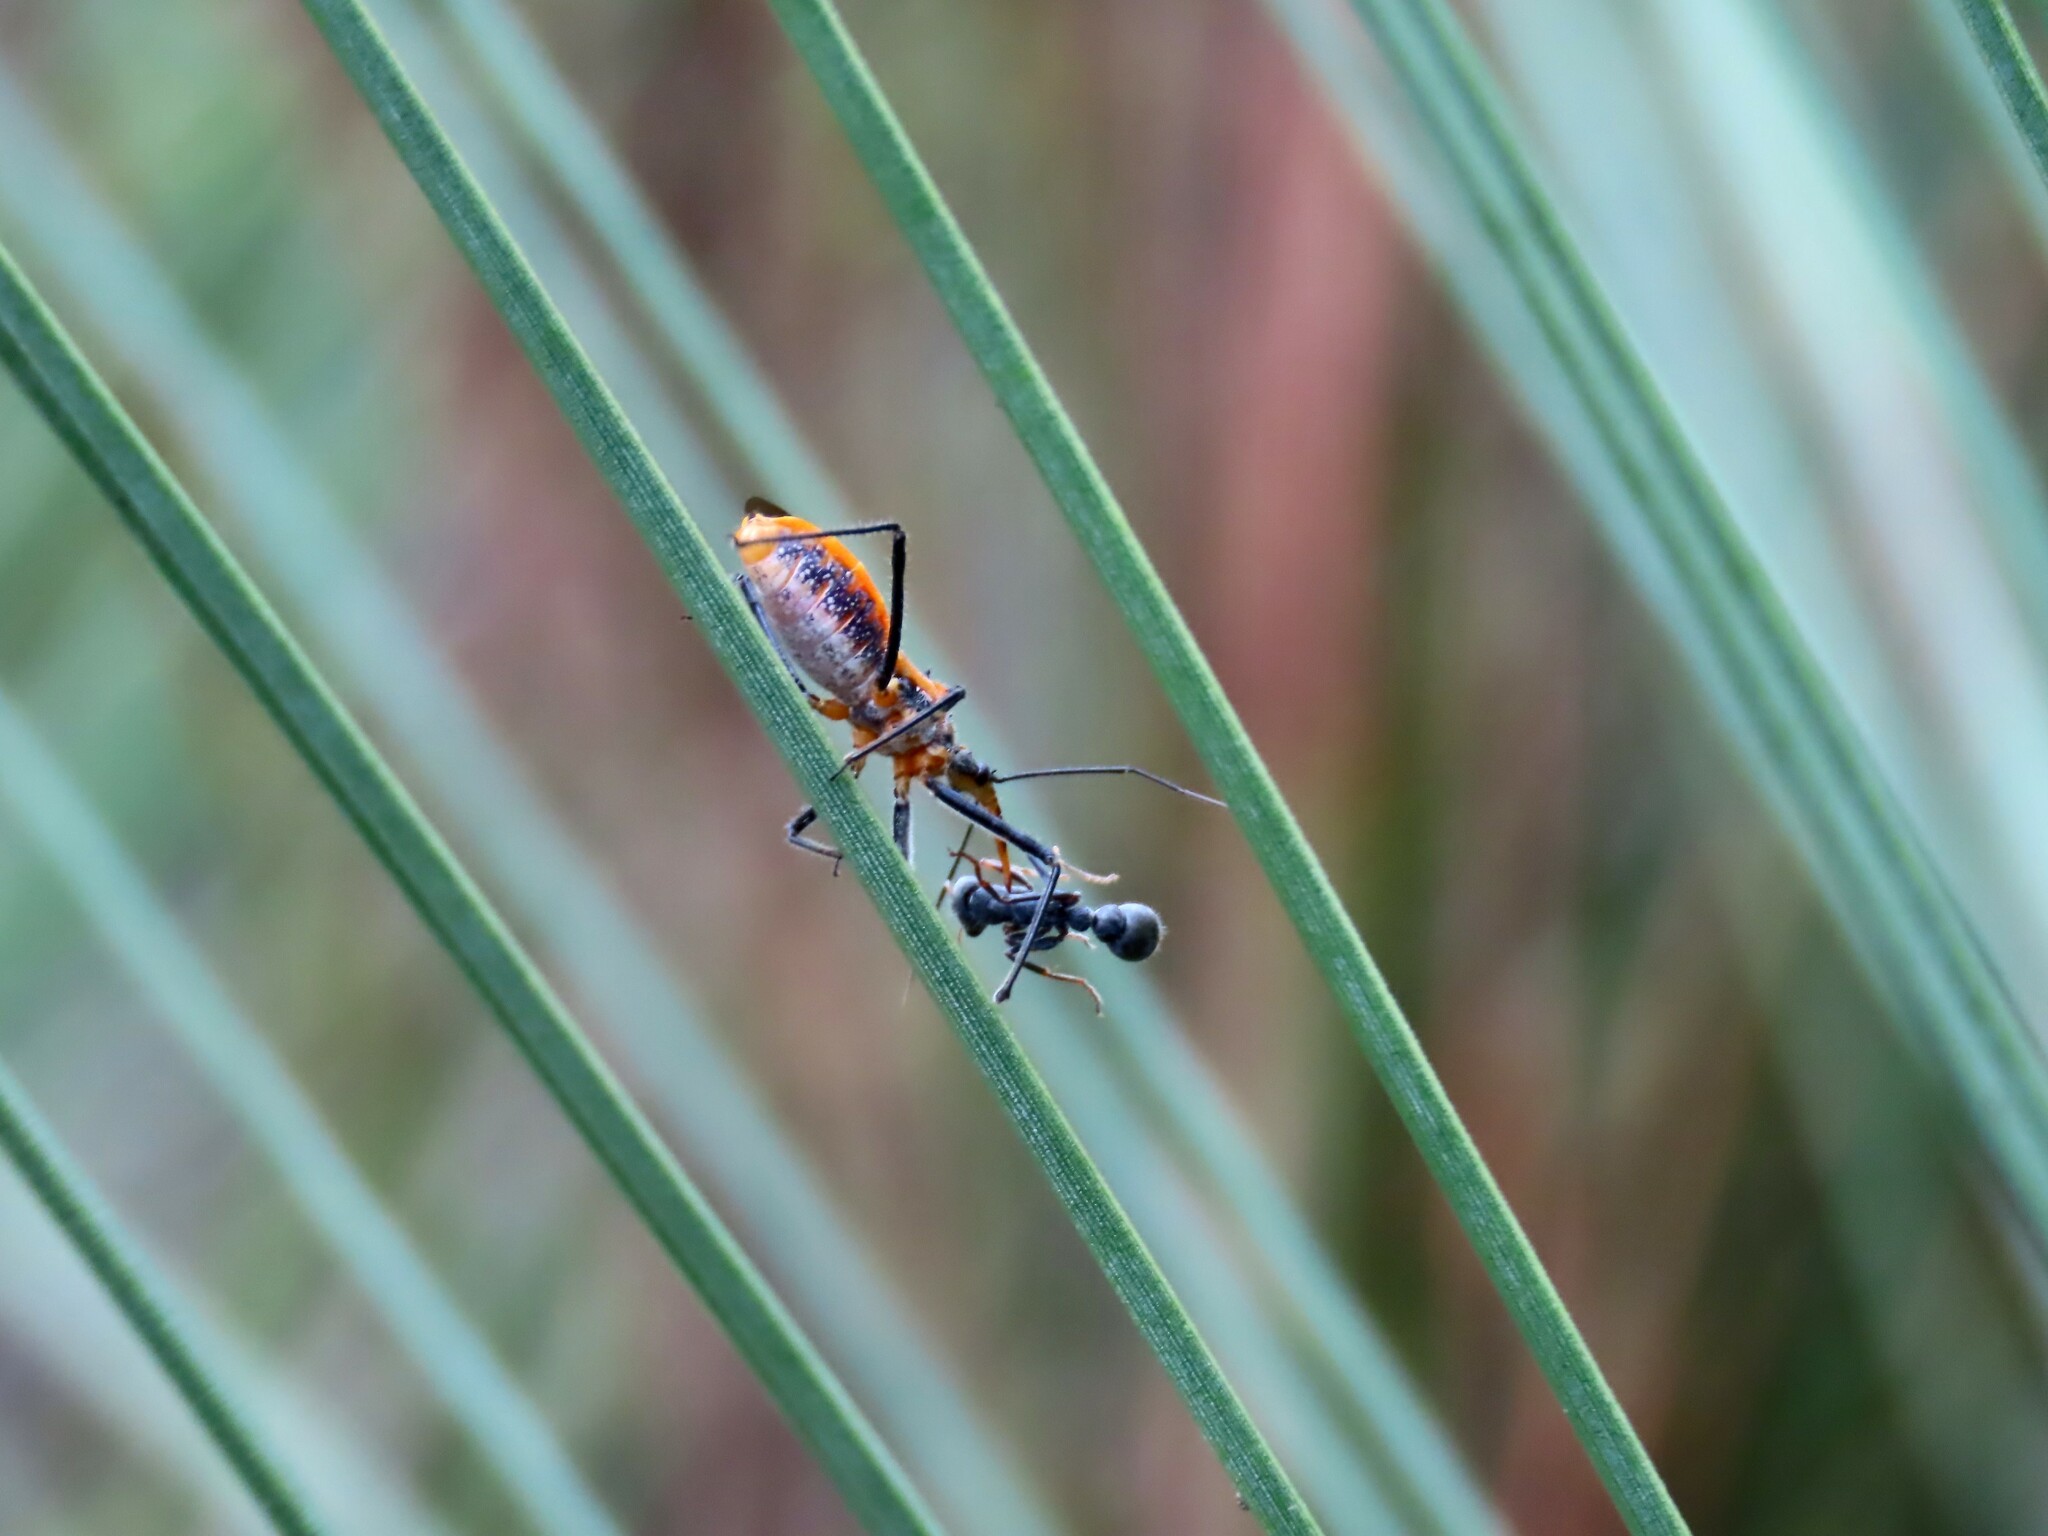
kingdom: Animalia
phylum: Arthropoda
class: Insecta
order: Hemiptera
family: Reduviidae
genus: Gminatus
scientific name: Gminatus australis
